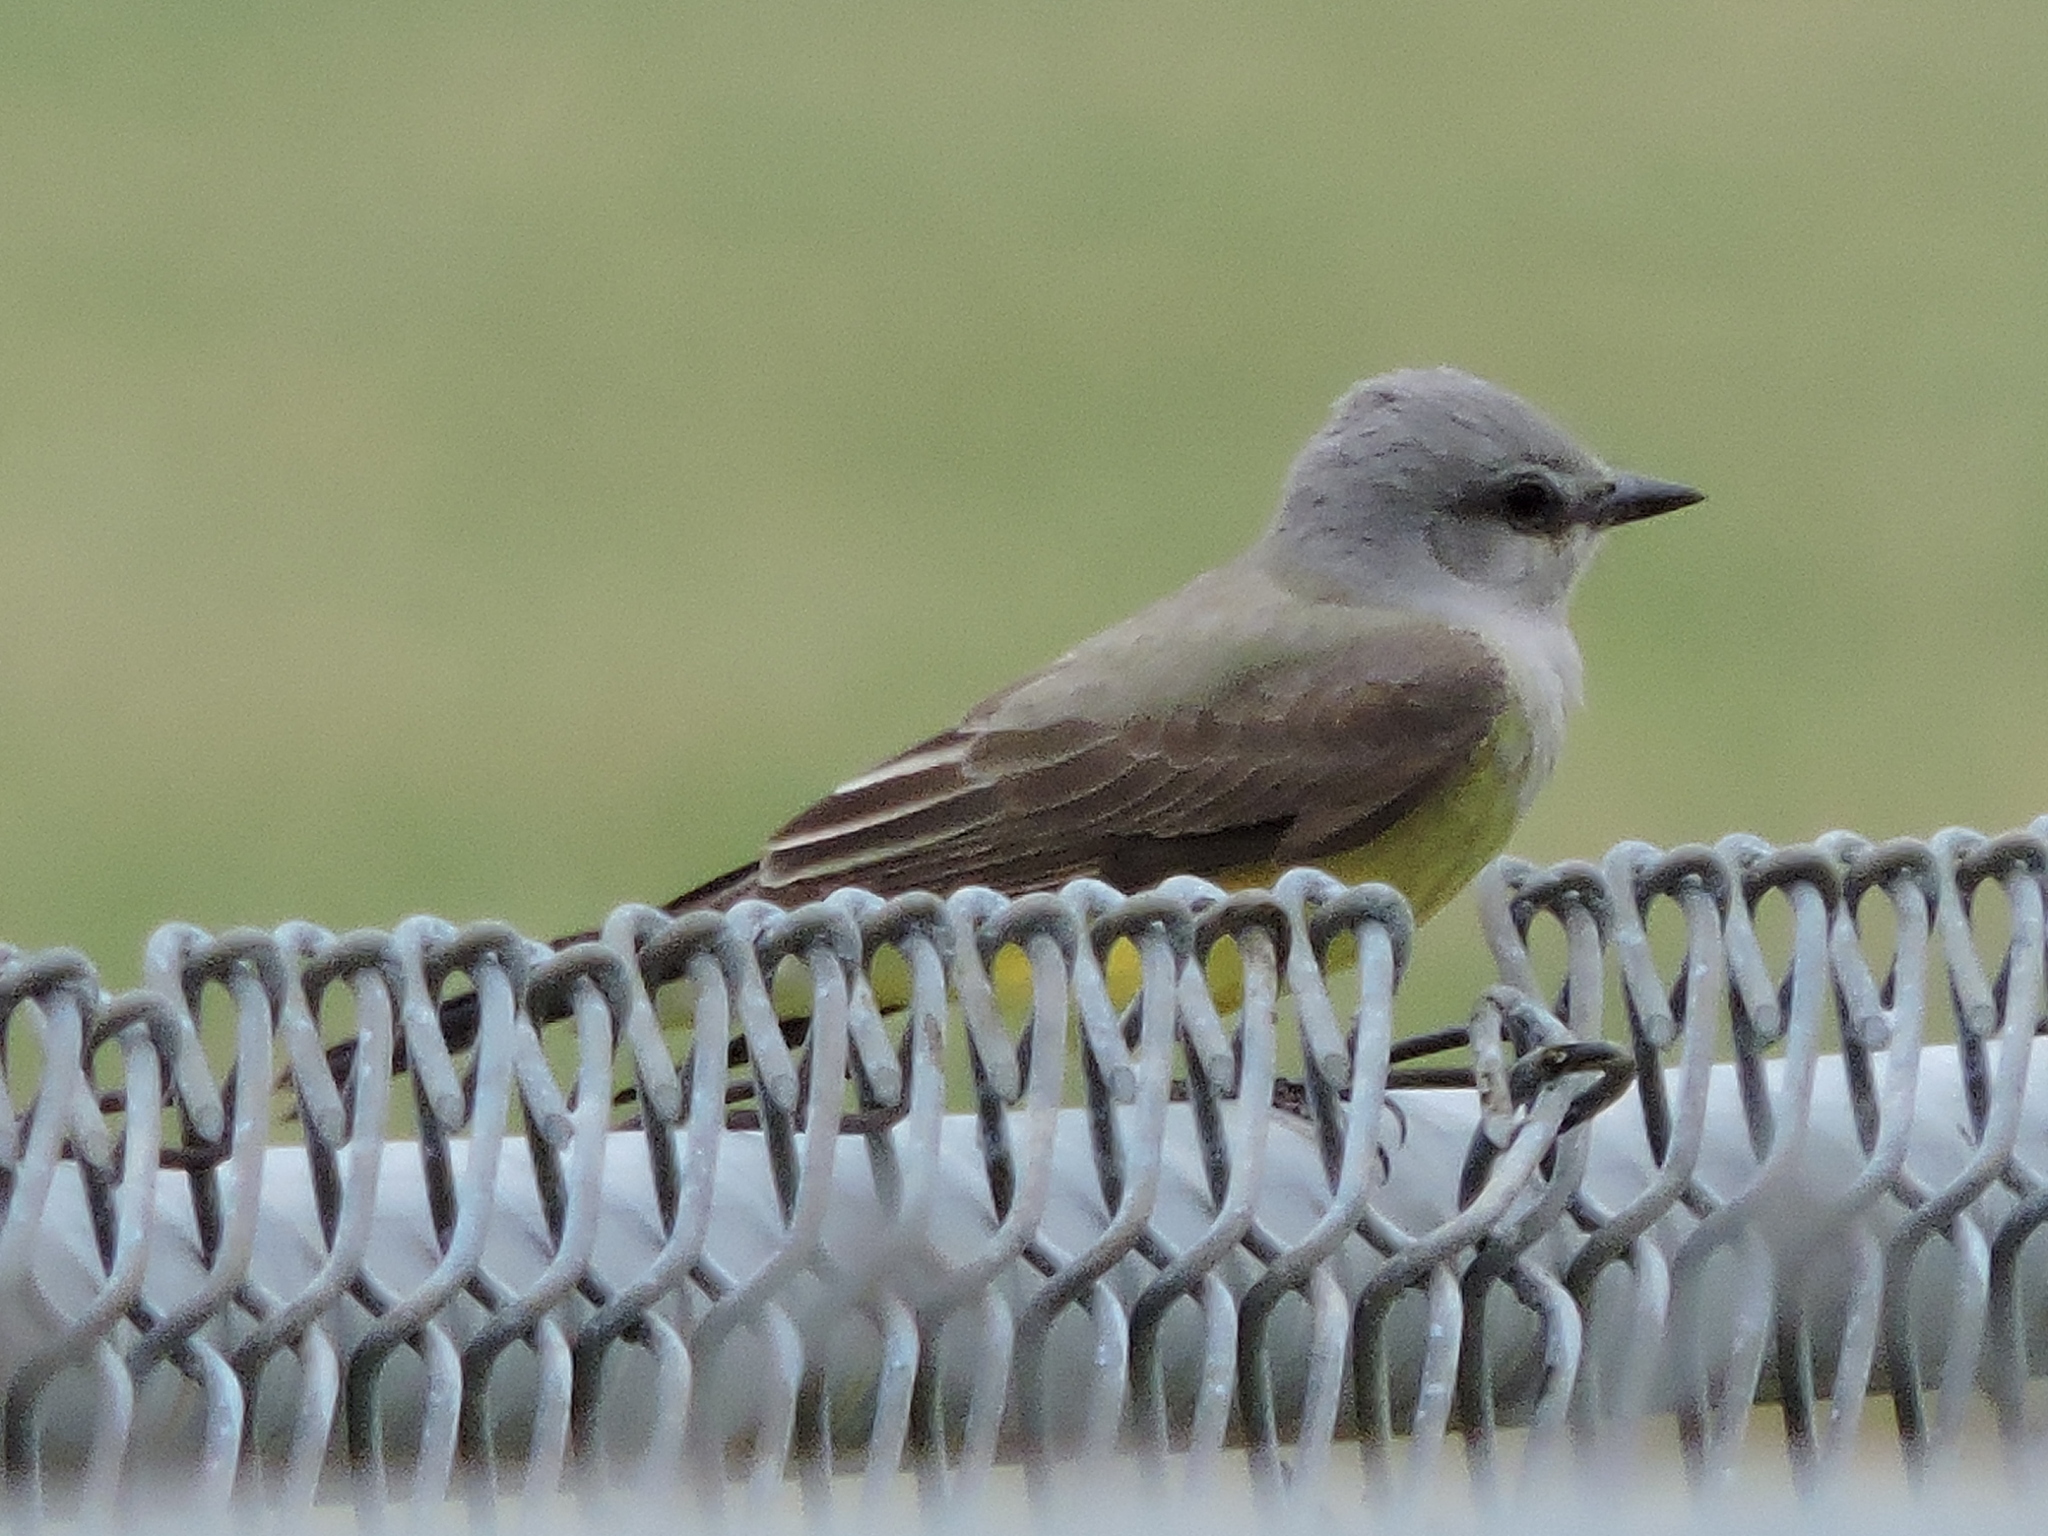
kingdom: Animalia
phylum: Chordata
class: Aves
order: Passeriformes
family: Tyrannidae
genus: Tyrannus
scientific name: Tyrannus verticalis
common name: Western kingbird
